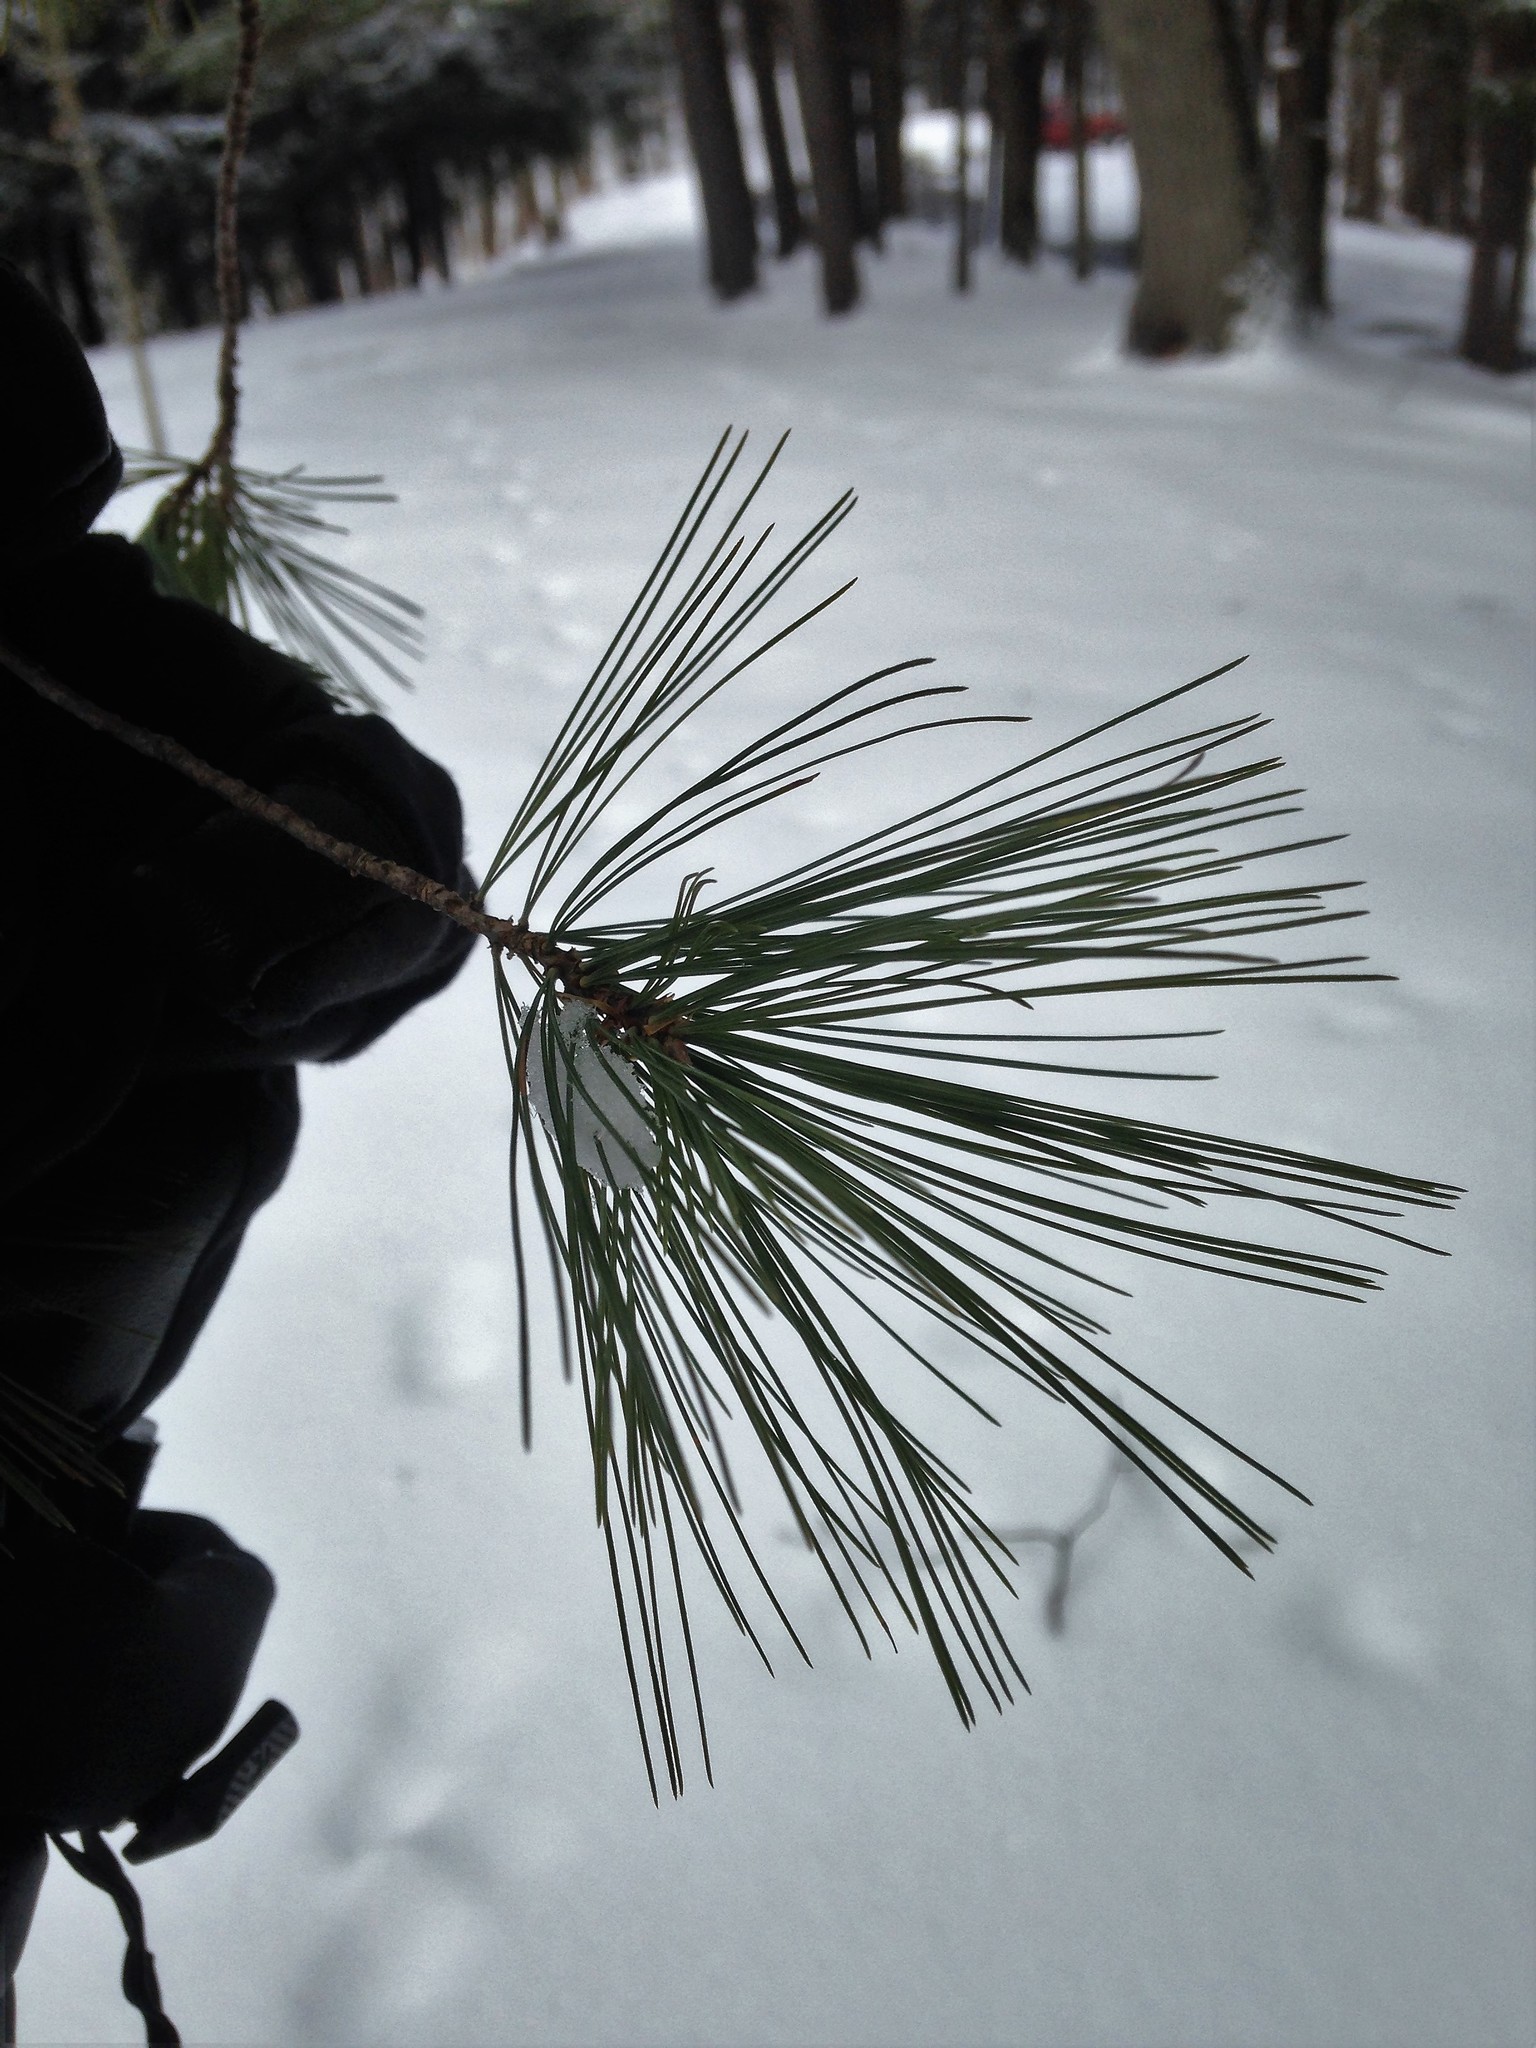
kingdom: Plantae
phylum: Tracheophyta
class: Pinopsida
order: Pinales
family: Pinaceae
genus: Pinus
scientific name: Pinus strobus
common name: Weymouth pine
